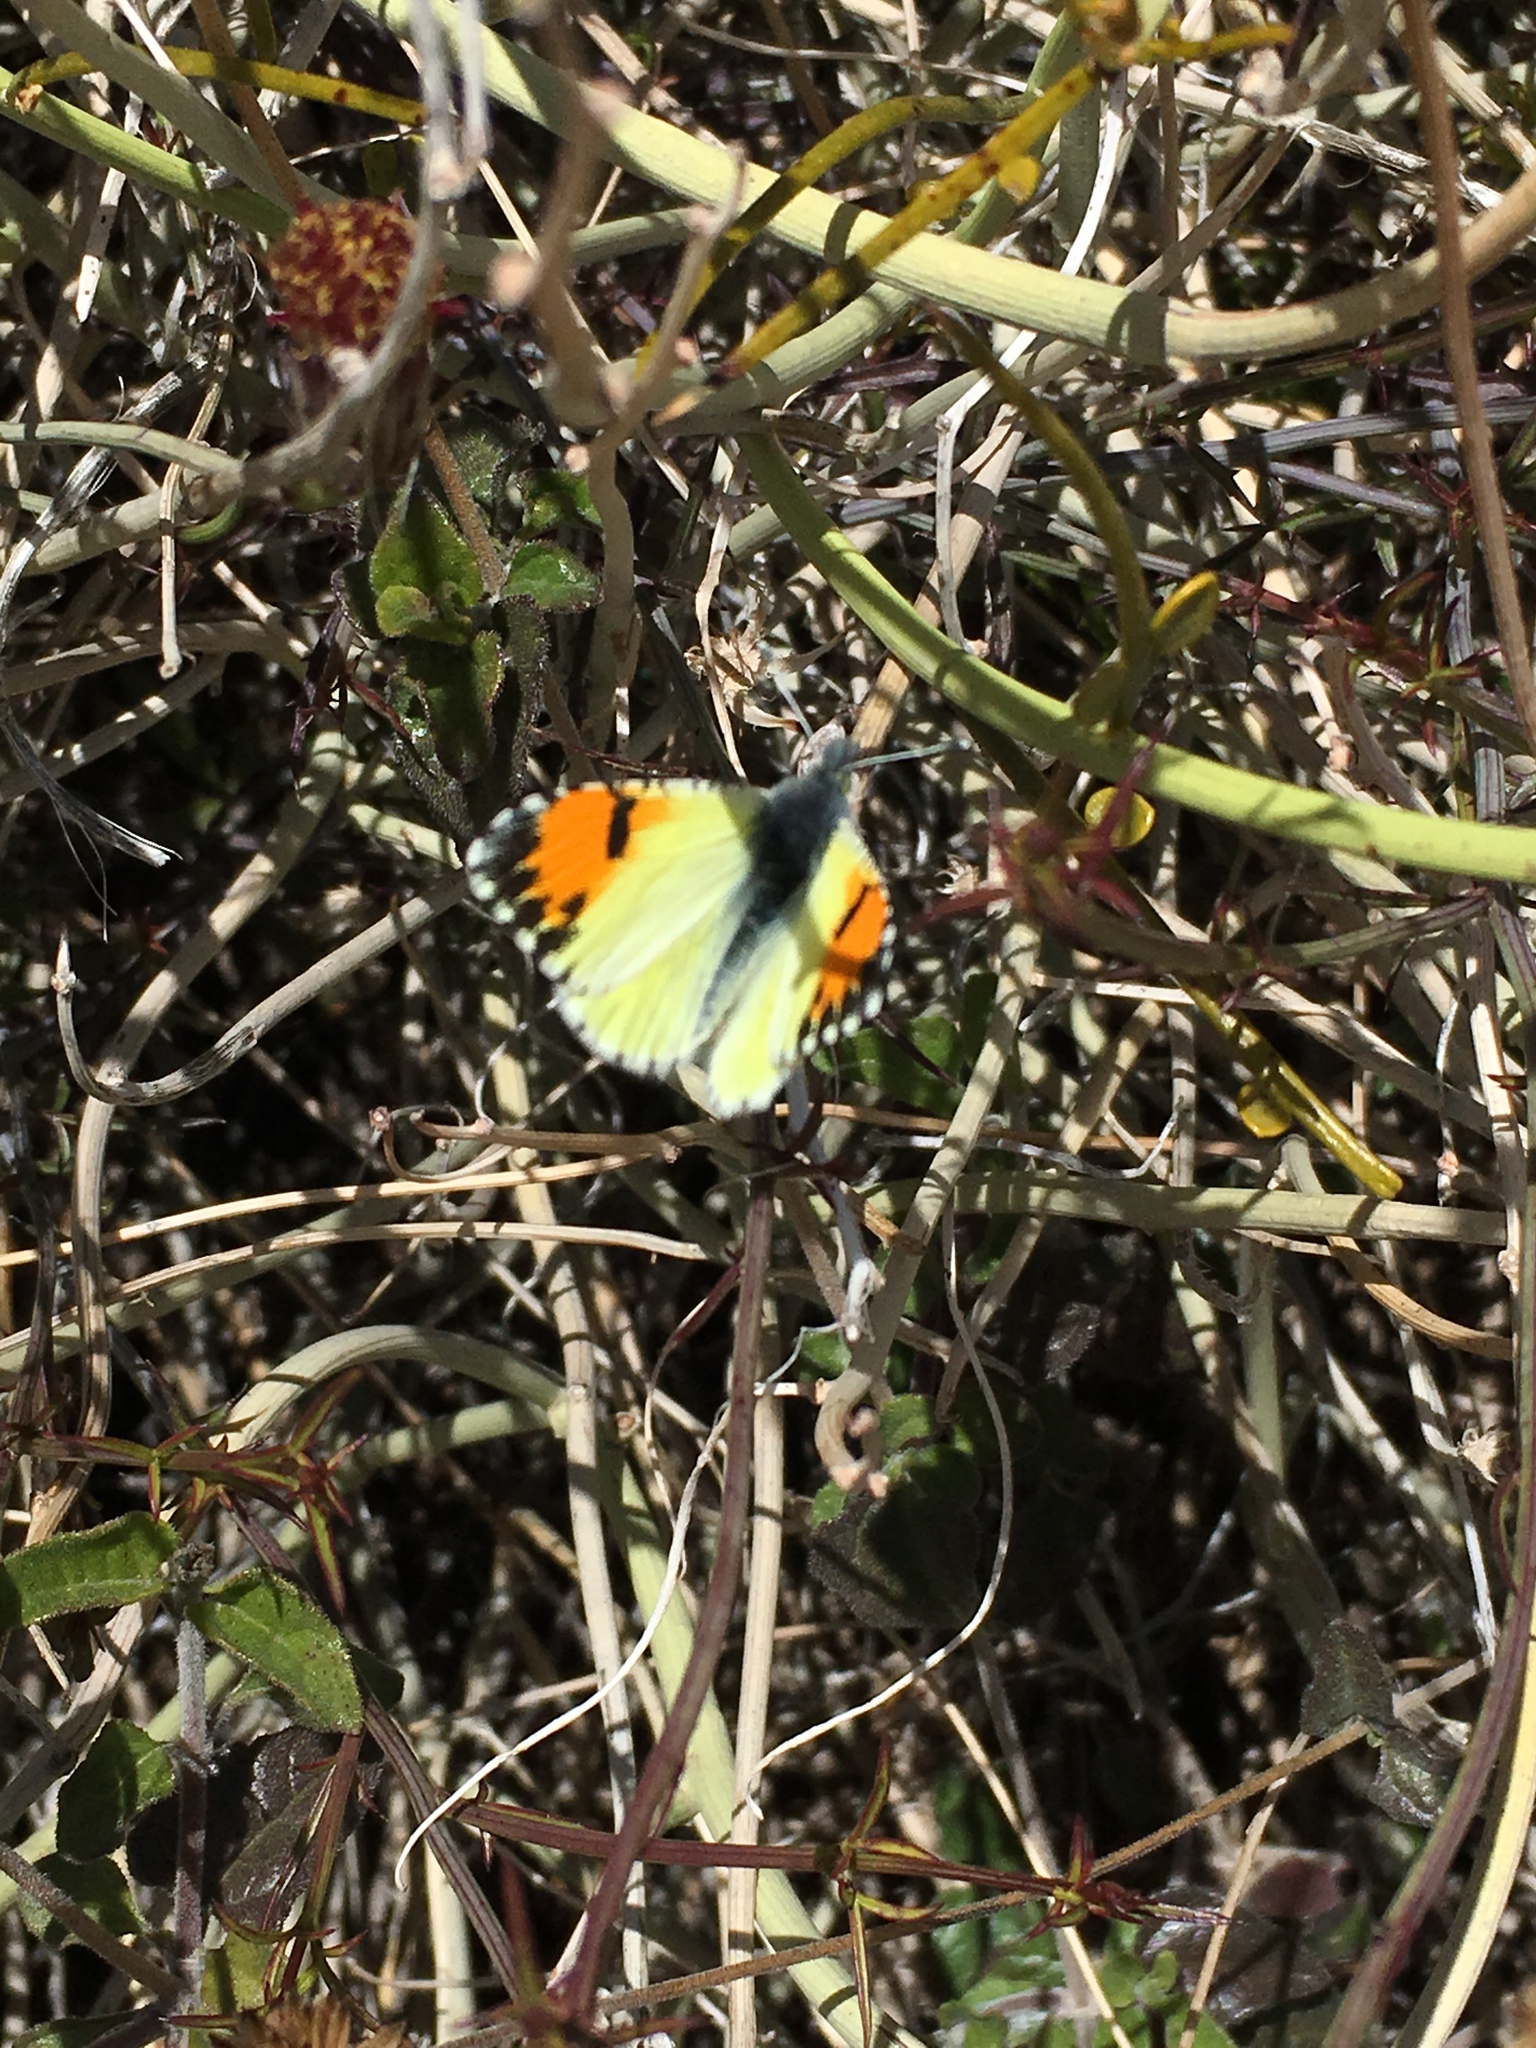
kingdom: Animalia
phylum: Arthropoda
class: Insecta
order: Lepidoptera
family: Pieridae
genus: Anthocharis
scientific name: Anthocharis cethura
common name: Desert orangetip
